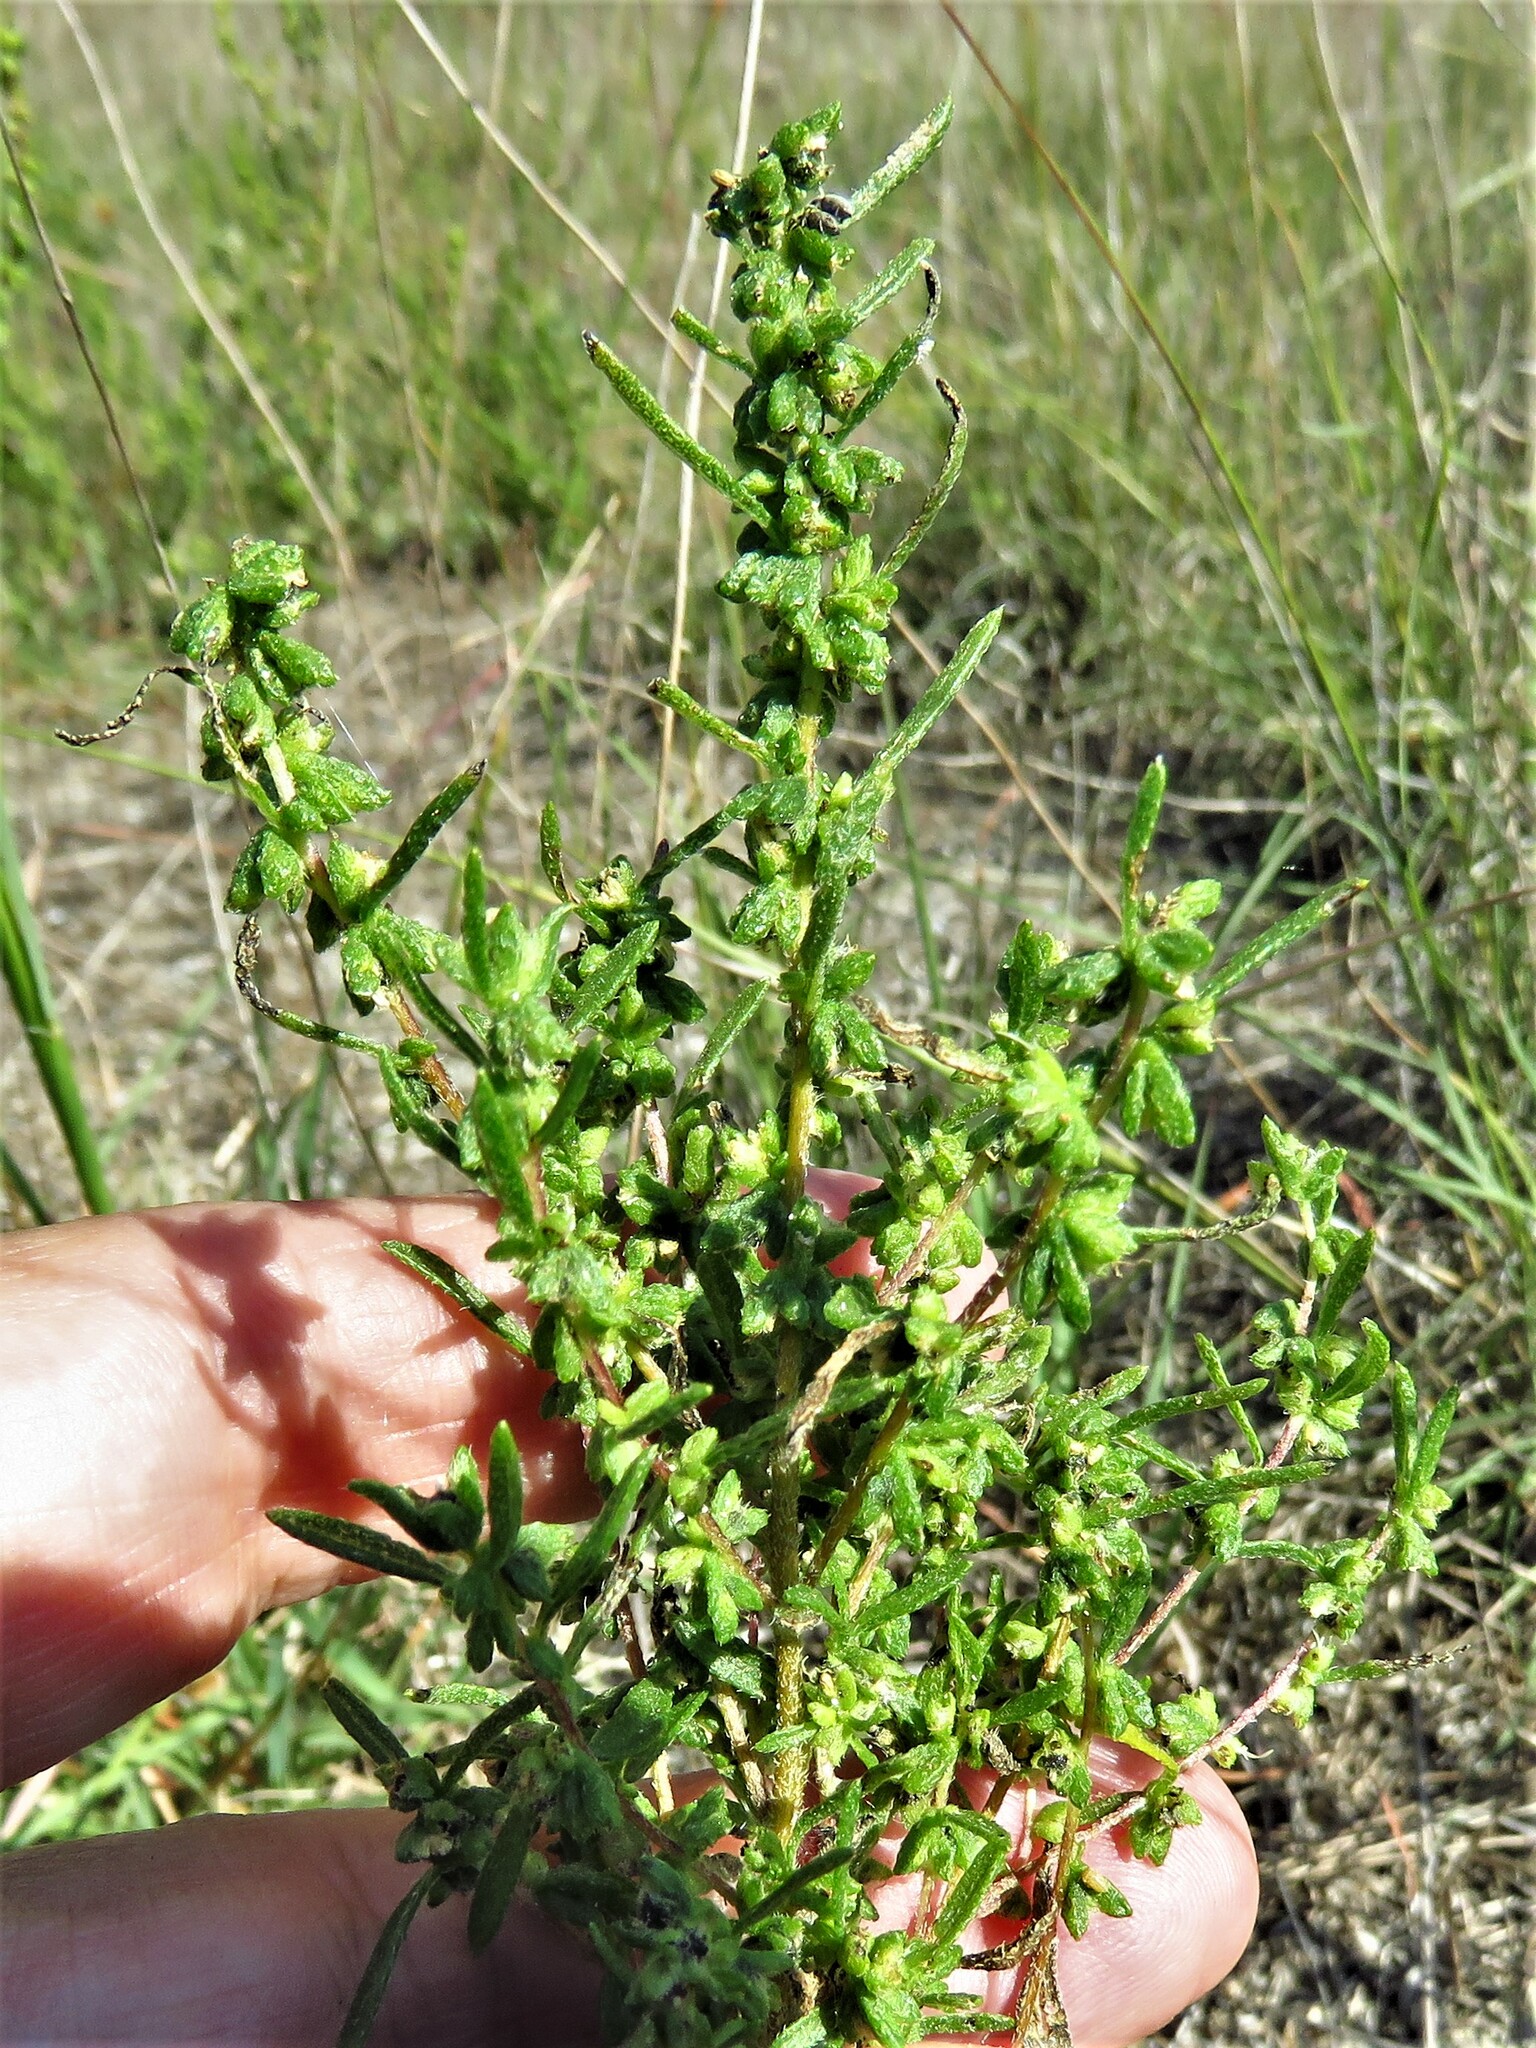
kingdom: Plantae
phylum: Tracheophyta
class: Magnoliopsida
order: Asterales
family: Asteraceae
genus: Iva
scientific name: Iva asperifolia
